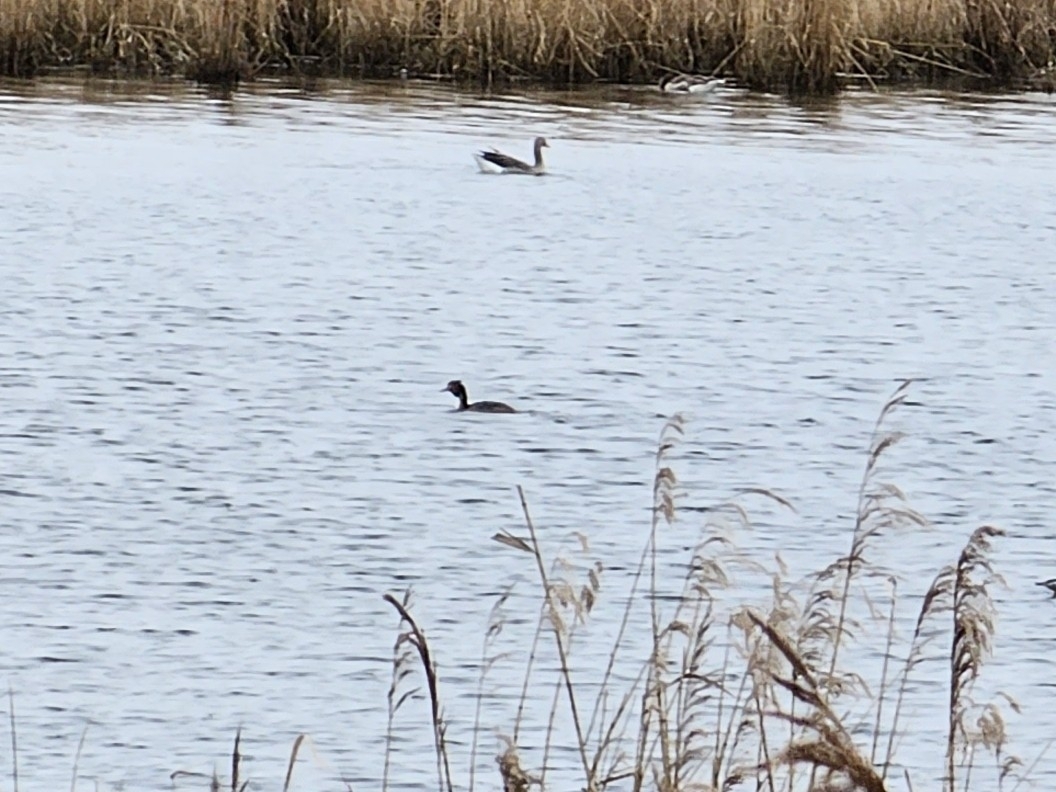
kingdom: Animalia
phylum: Chordata
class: Aves
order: Podicipediformes
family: Podicipedidae
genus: Podiceps
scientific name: Podiceps cristatus
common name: Great crested grebe
